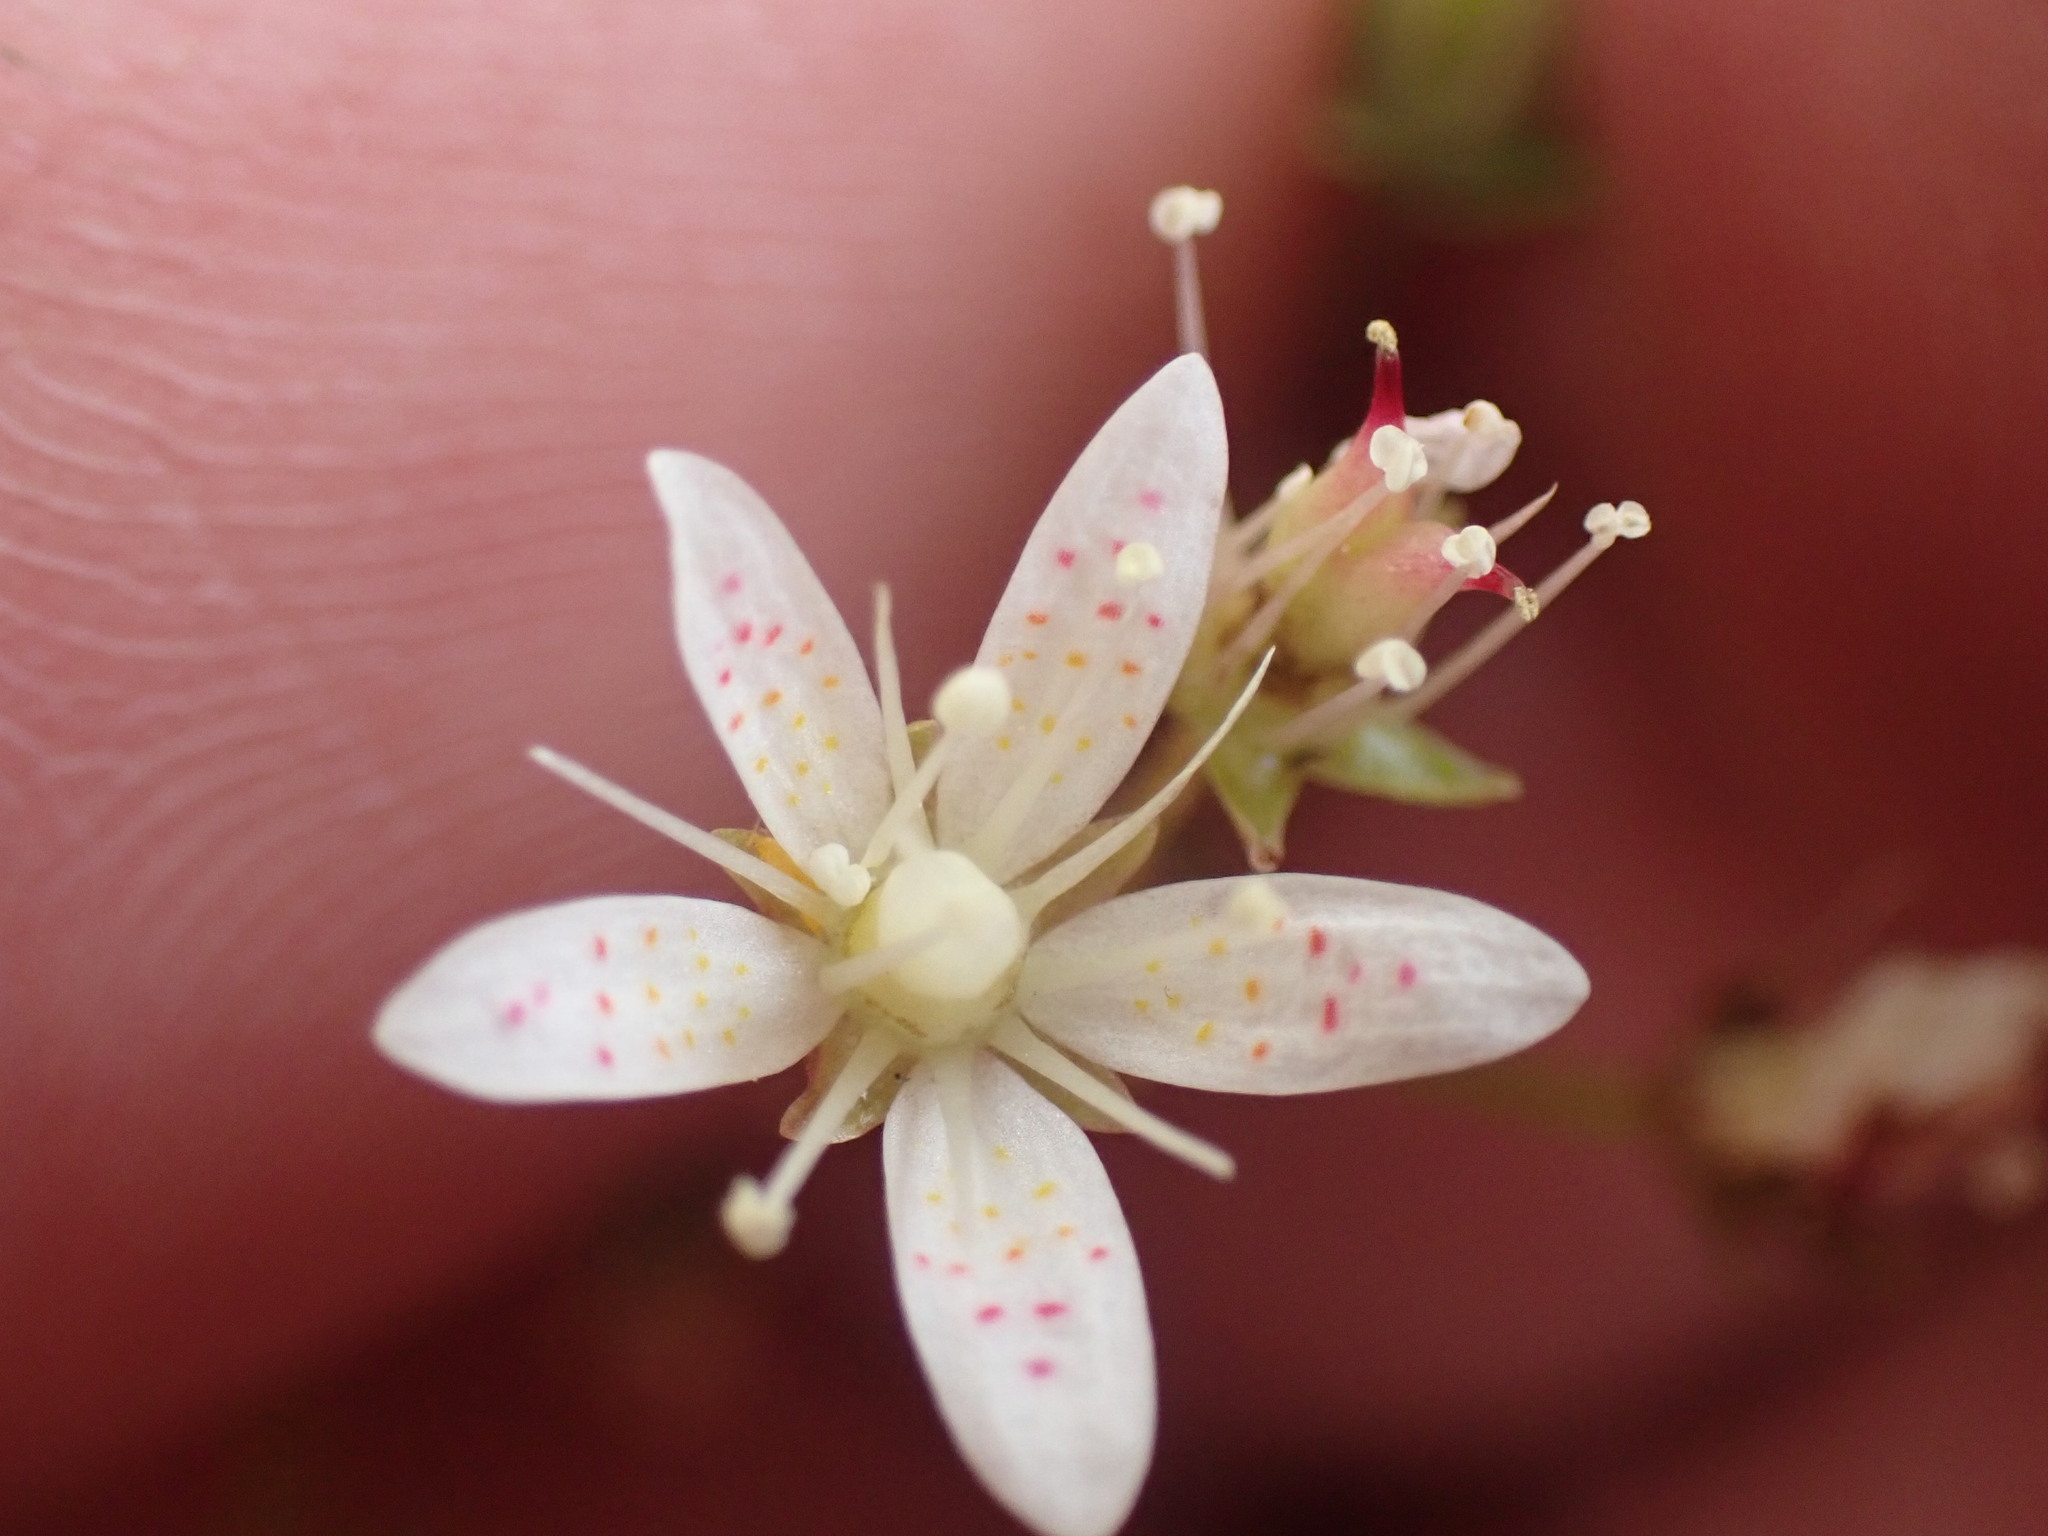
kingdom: Plantae
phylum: Tracheophyta
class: Magnoliopsida
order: Saxifragales
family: Saxifragaceae
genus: Saxifraga
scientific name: Saxifraga bronchialis
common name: Matted saxifrage
